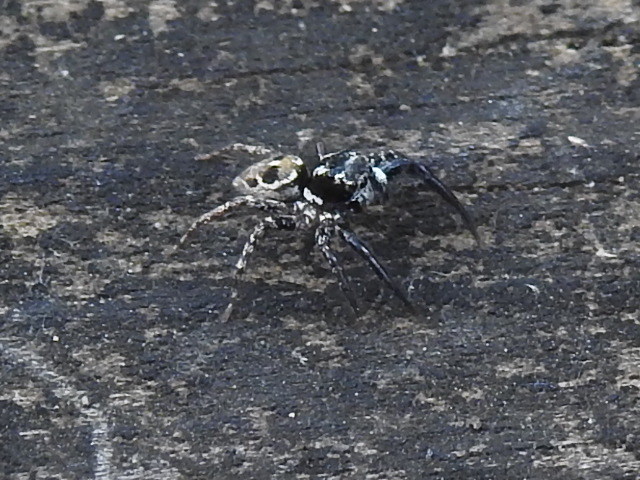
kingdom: Animalia
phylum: Arthropoda
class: Arachnida
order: Araneae
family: Salticidae
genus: Anasaitis
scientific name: Anasaitis canosa
